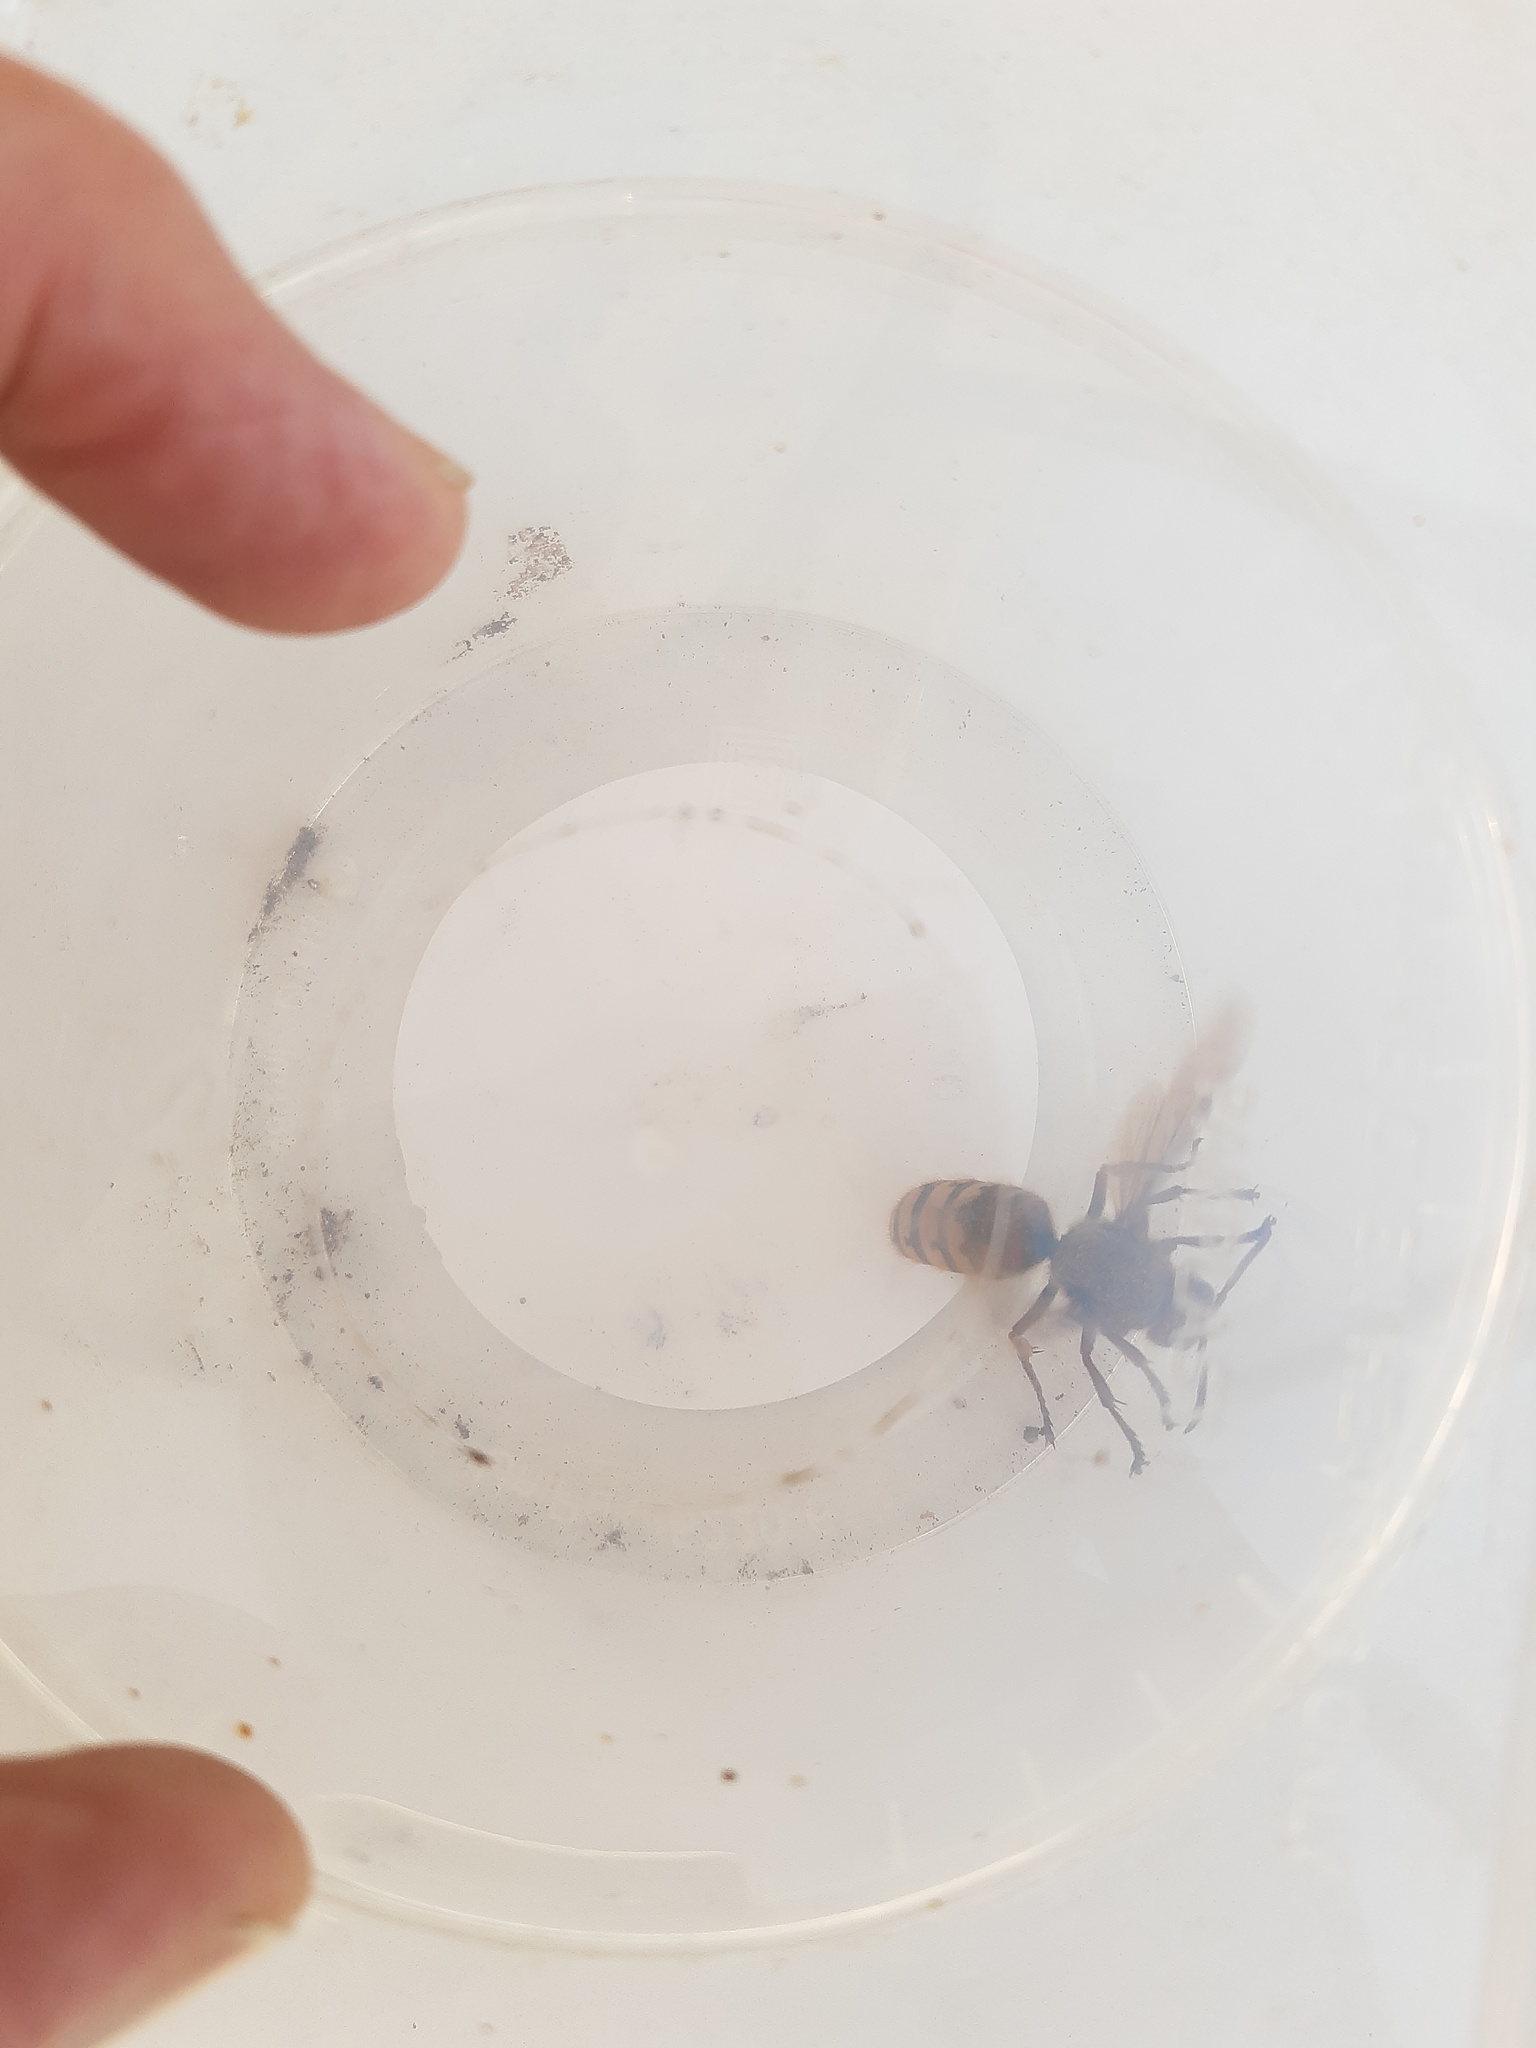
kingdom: Animalia
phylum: Arthropoda
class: Insecta
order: Hymenoptera
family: Vespidae
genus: Vespa
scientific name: Vespa crabro
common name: Hornet
